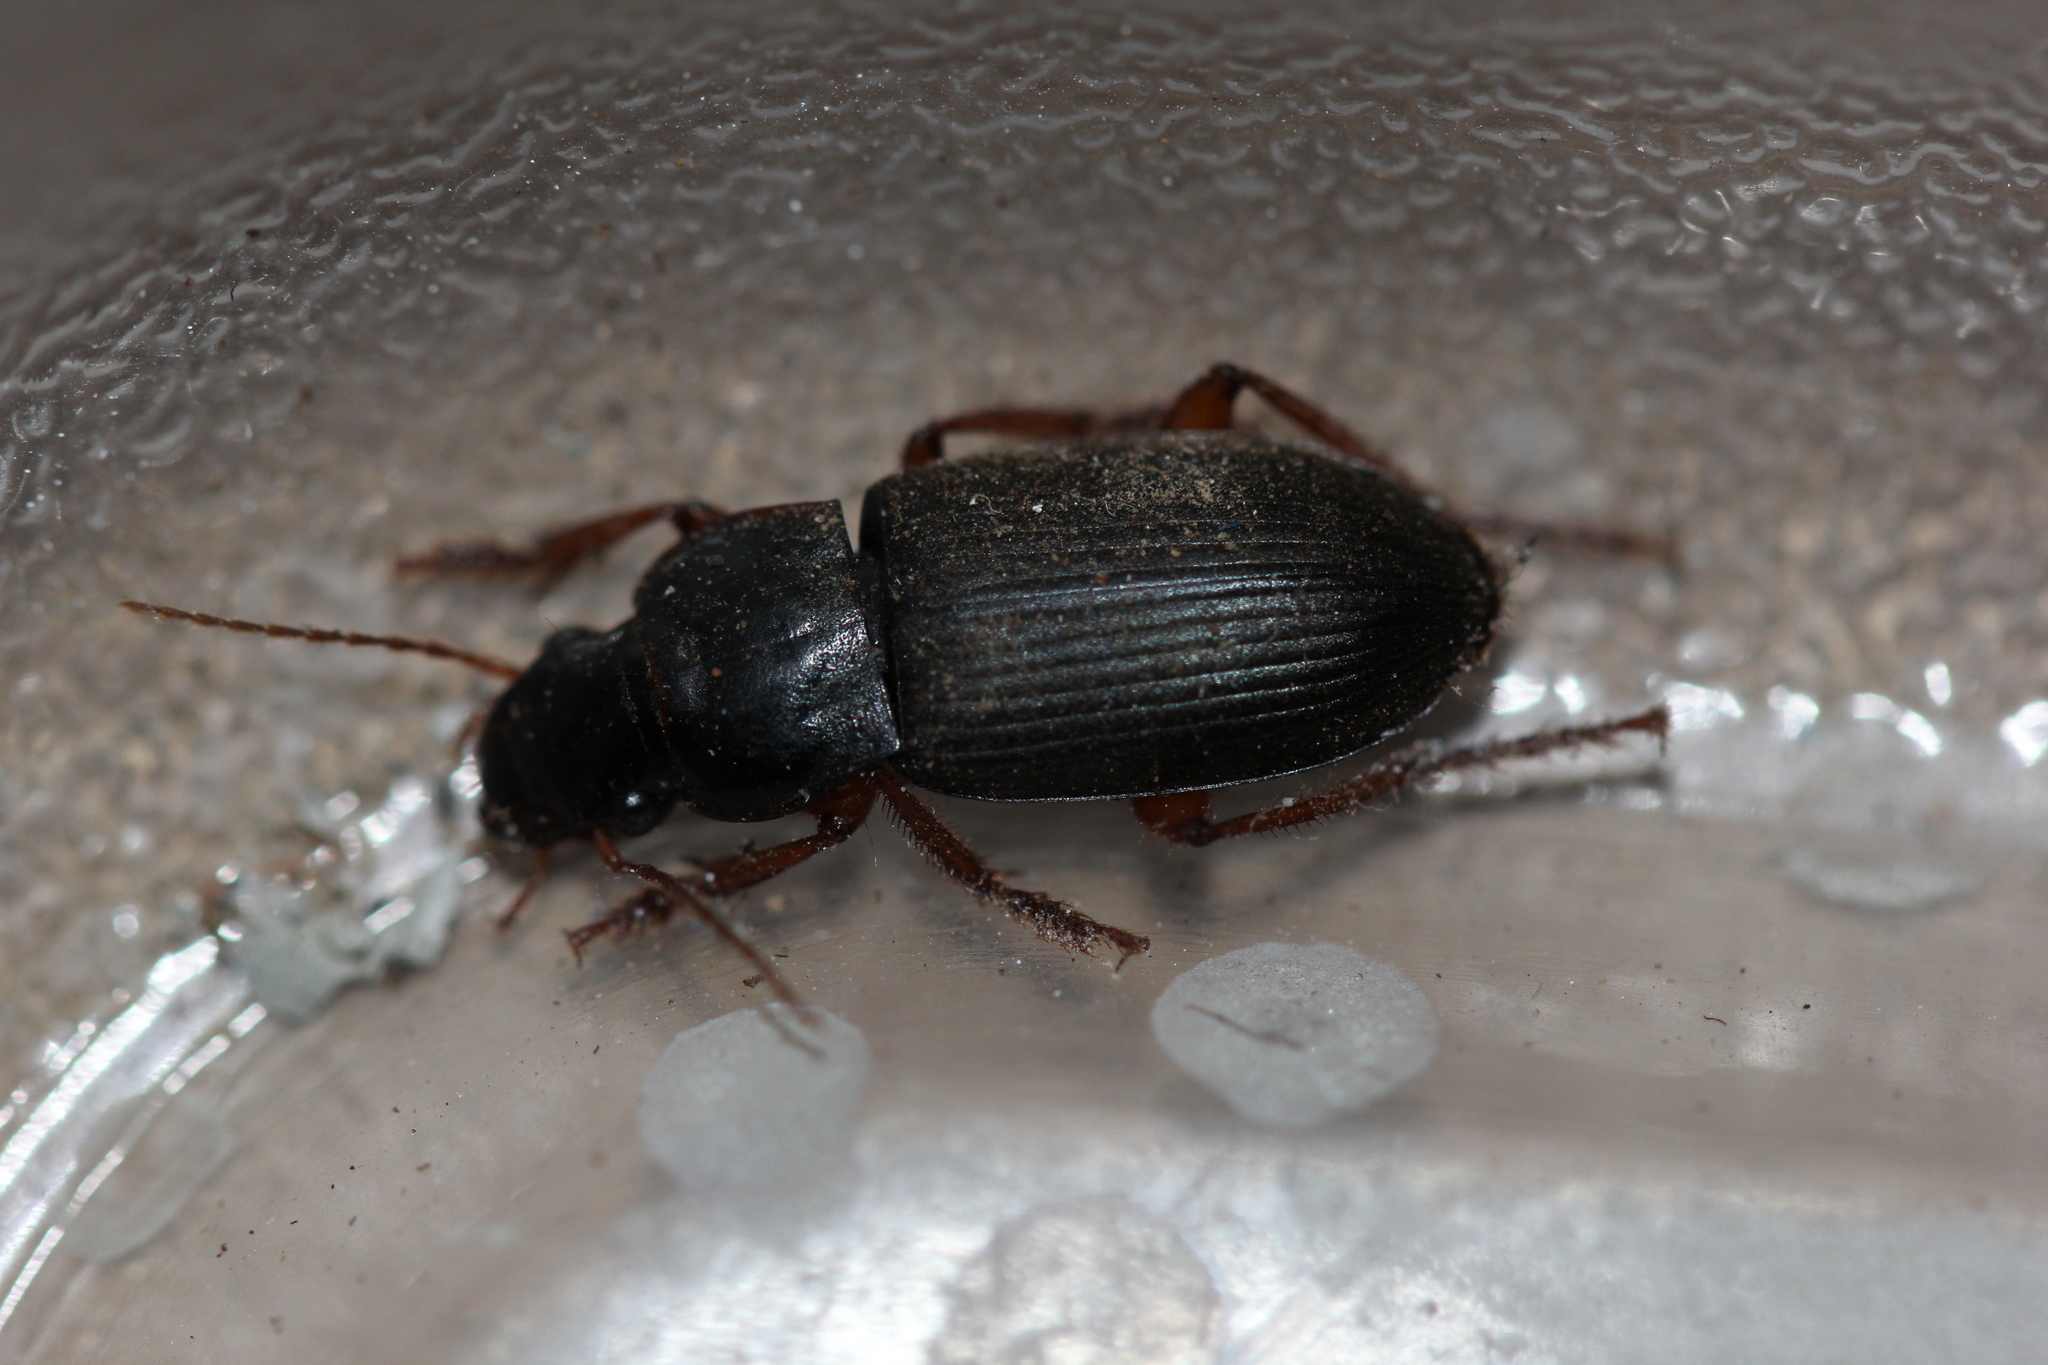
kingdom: Animalia
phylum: Arthropoda
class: Insecta
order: Coleoptera
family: Carabidae
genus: Harpalus
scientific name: Harpalus rufipes
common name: Strawberry harp ground beetle
